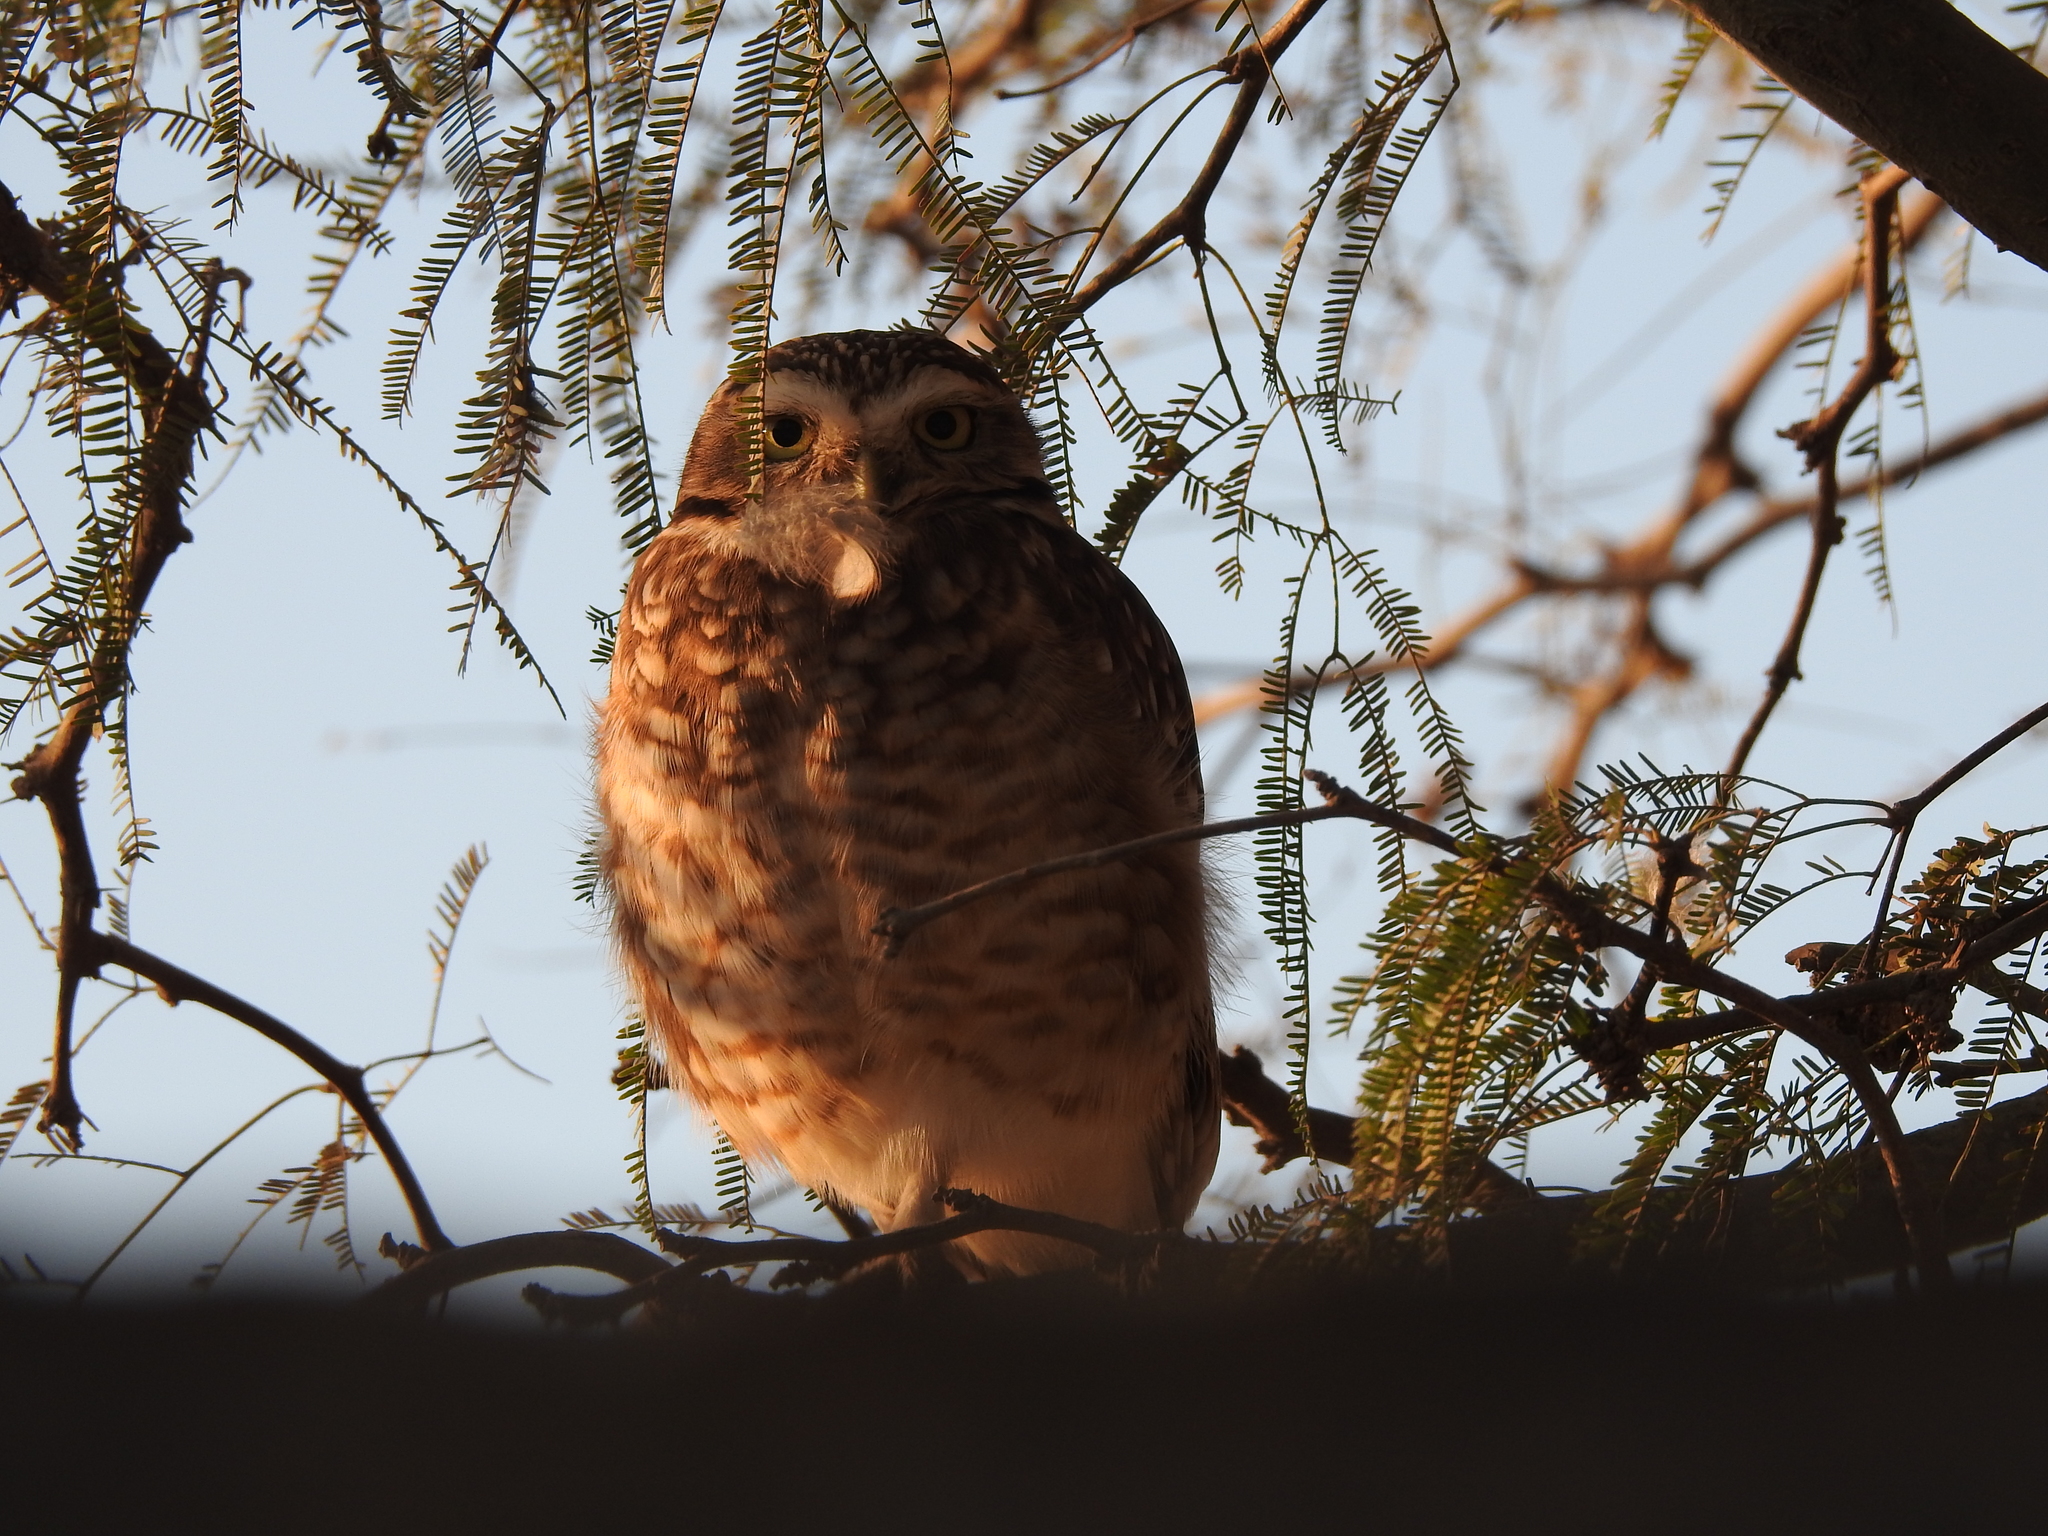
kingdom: Animalia
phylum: Chordata
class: Aves
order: Strigiformes
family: Strigidae
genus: Athene
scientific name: Athene cunicularia
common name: Burrowing owl
